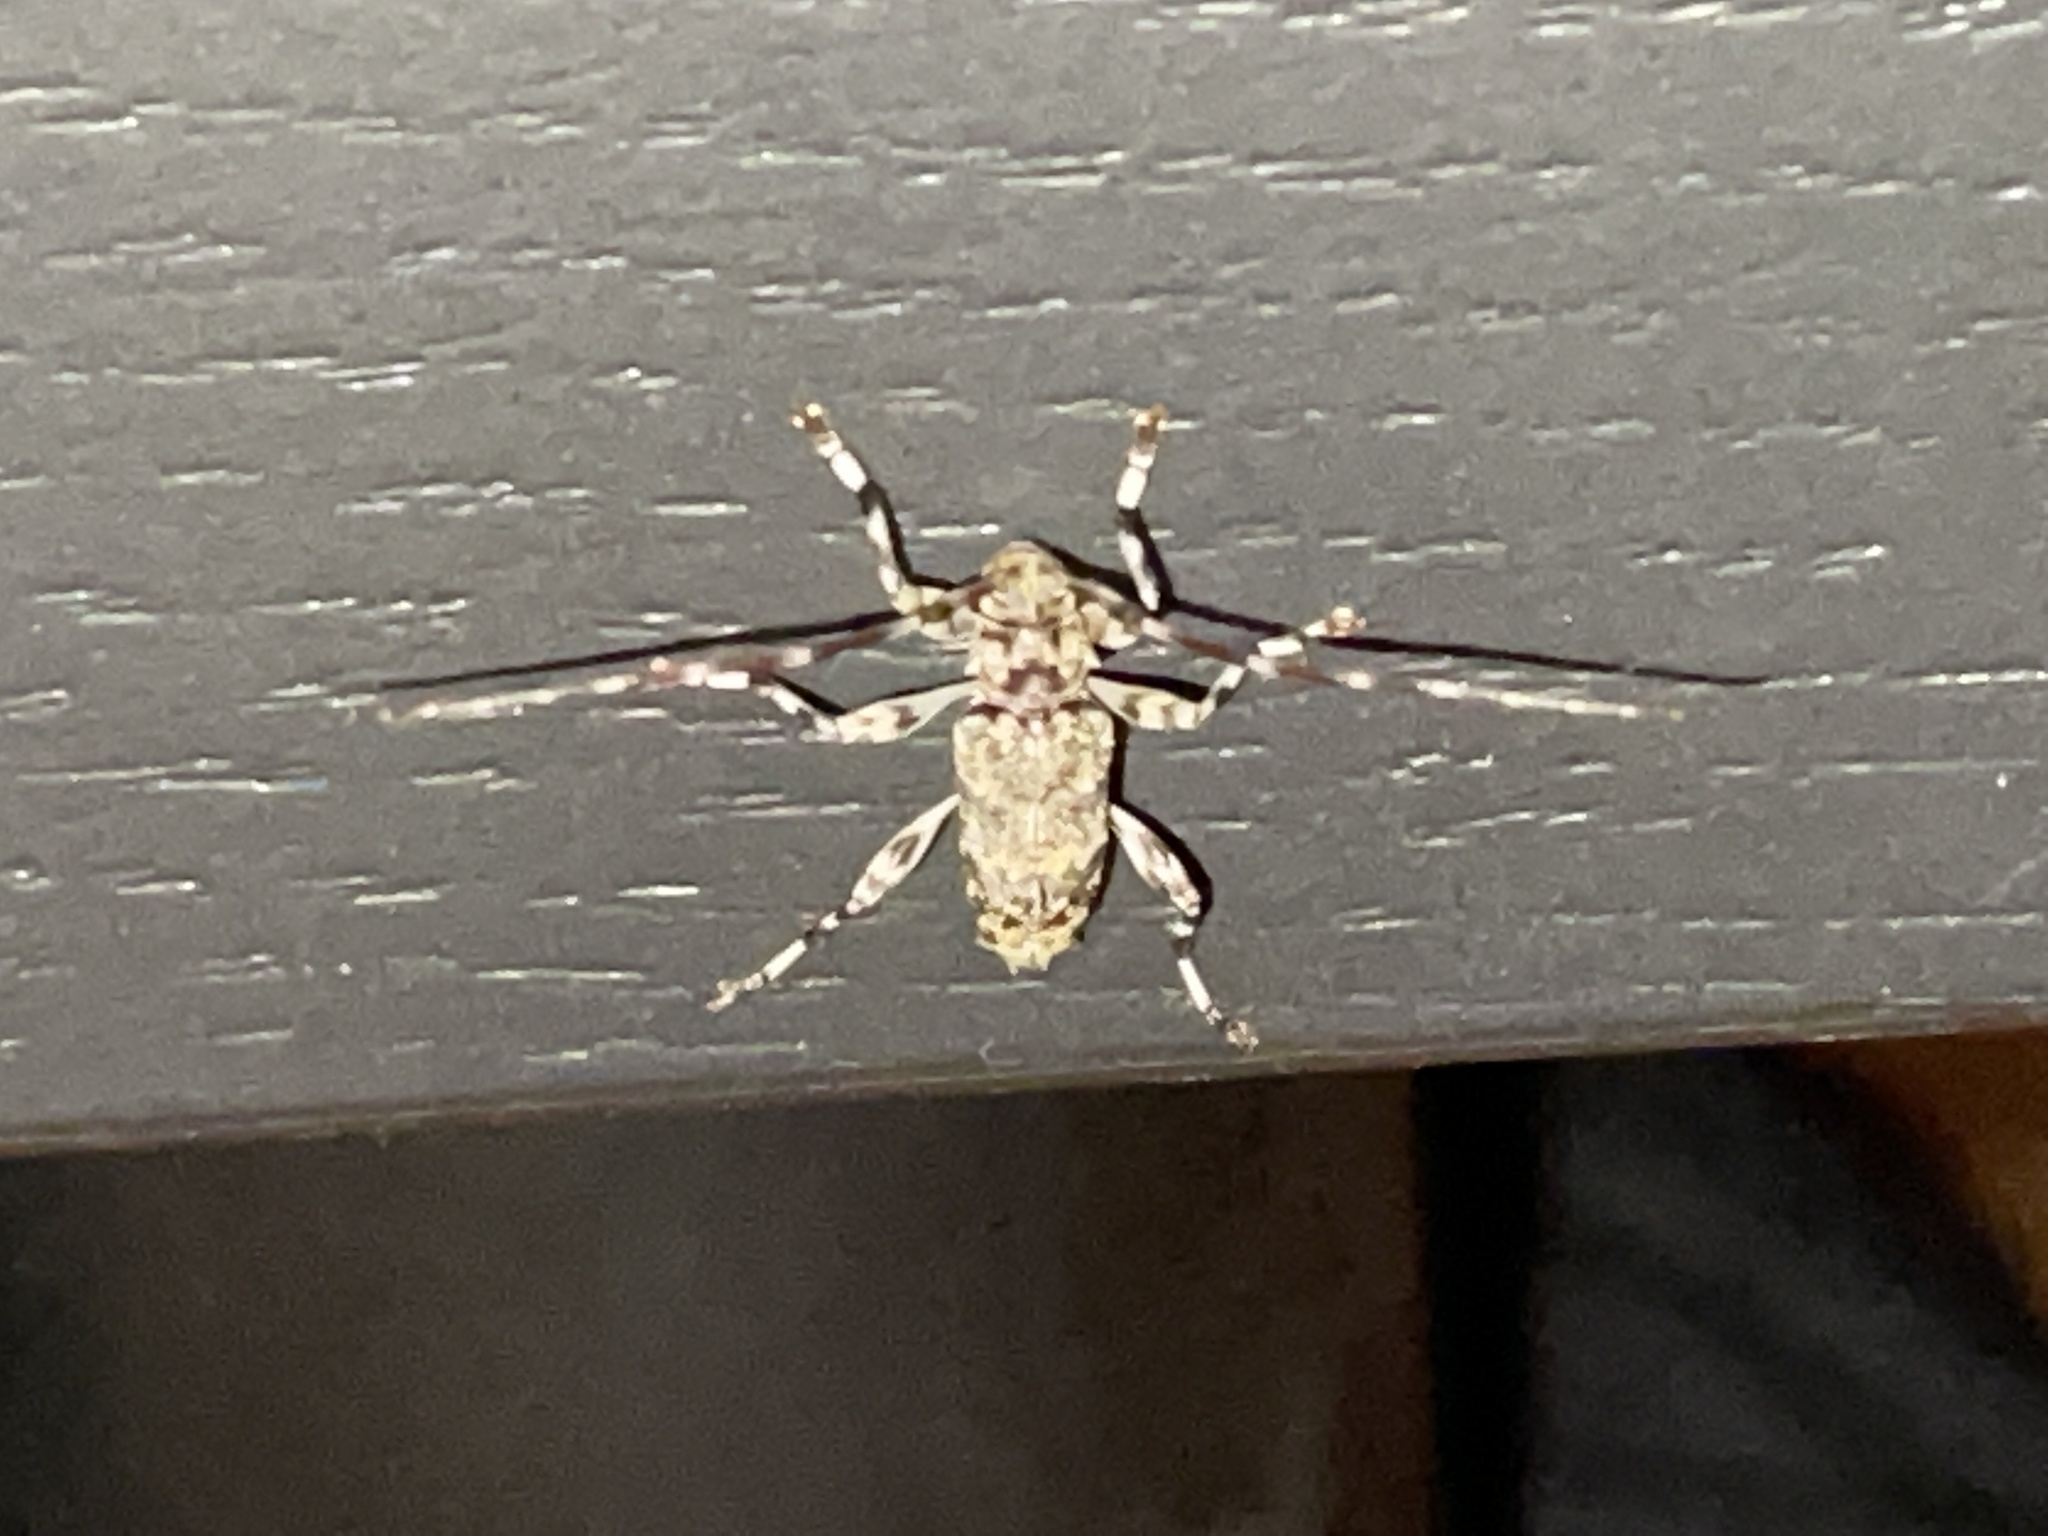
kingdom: Animalia
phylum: Arthropoda
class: Insecta
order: Coleoptera
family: Cerambycidae
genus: Graphisurus
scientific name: Graphisurus fasciatus
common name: Banded graphisurus
